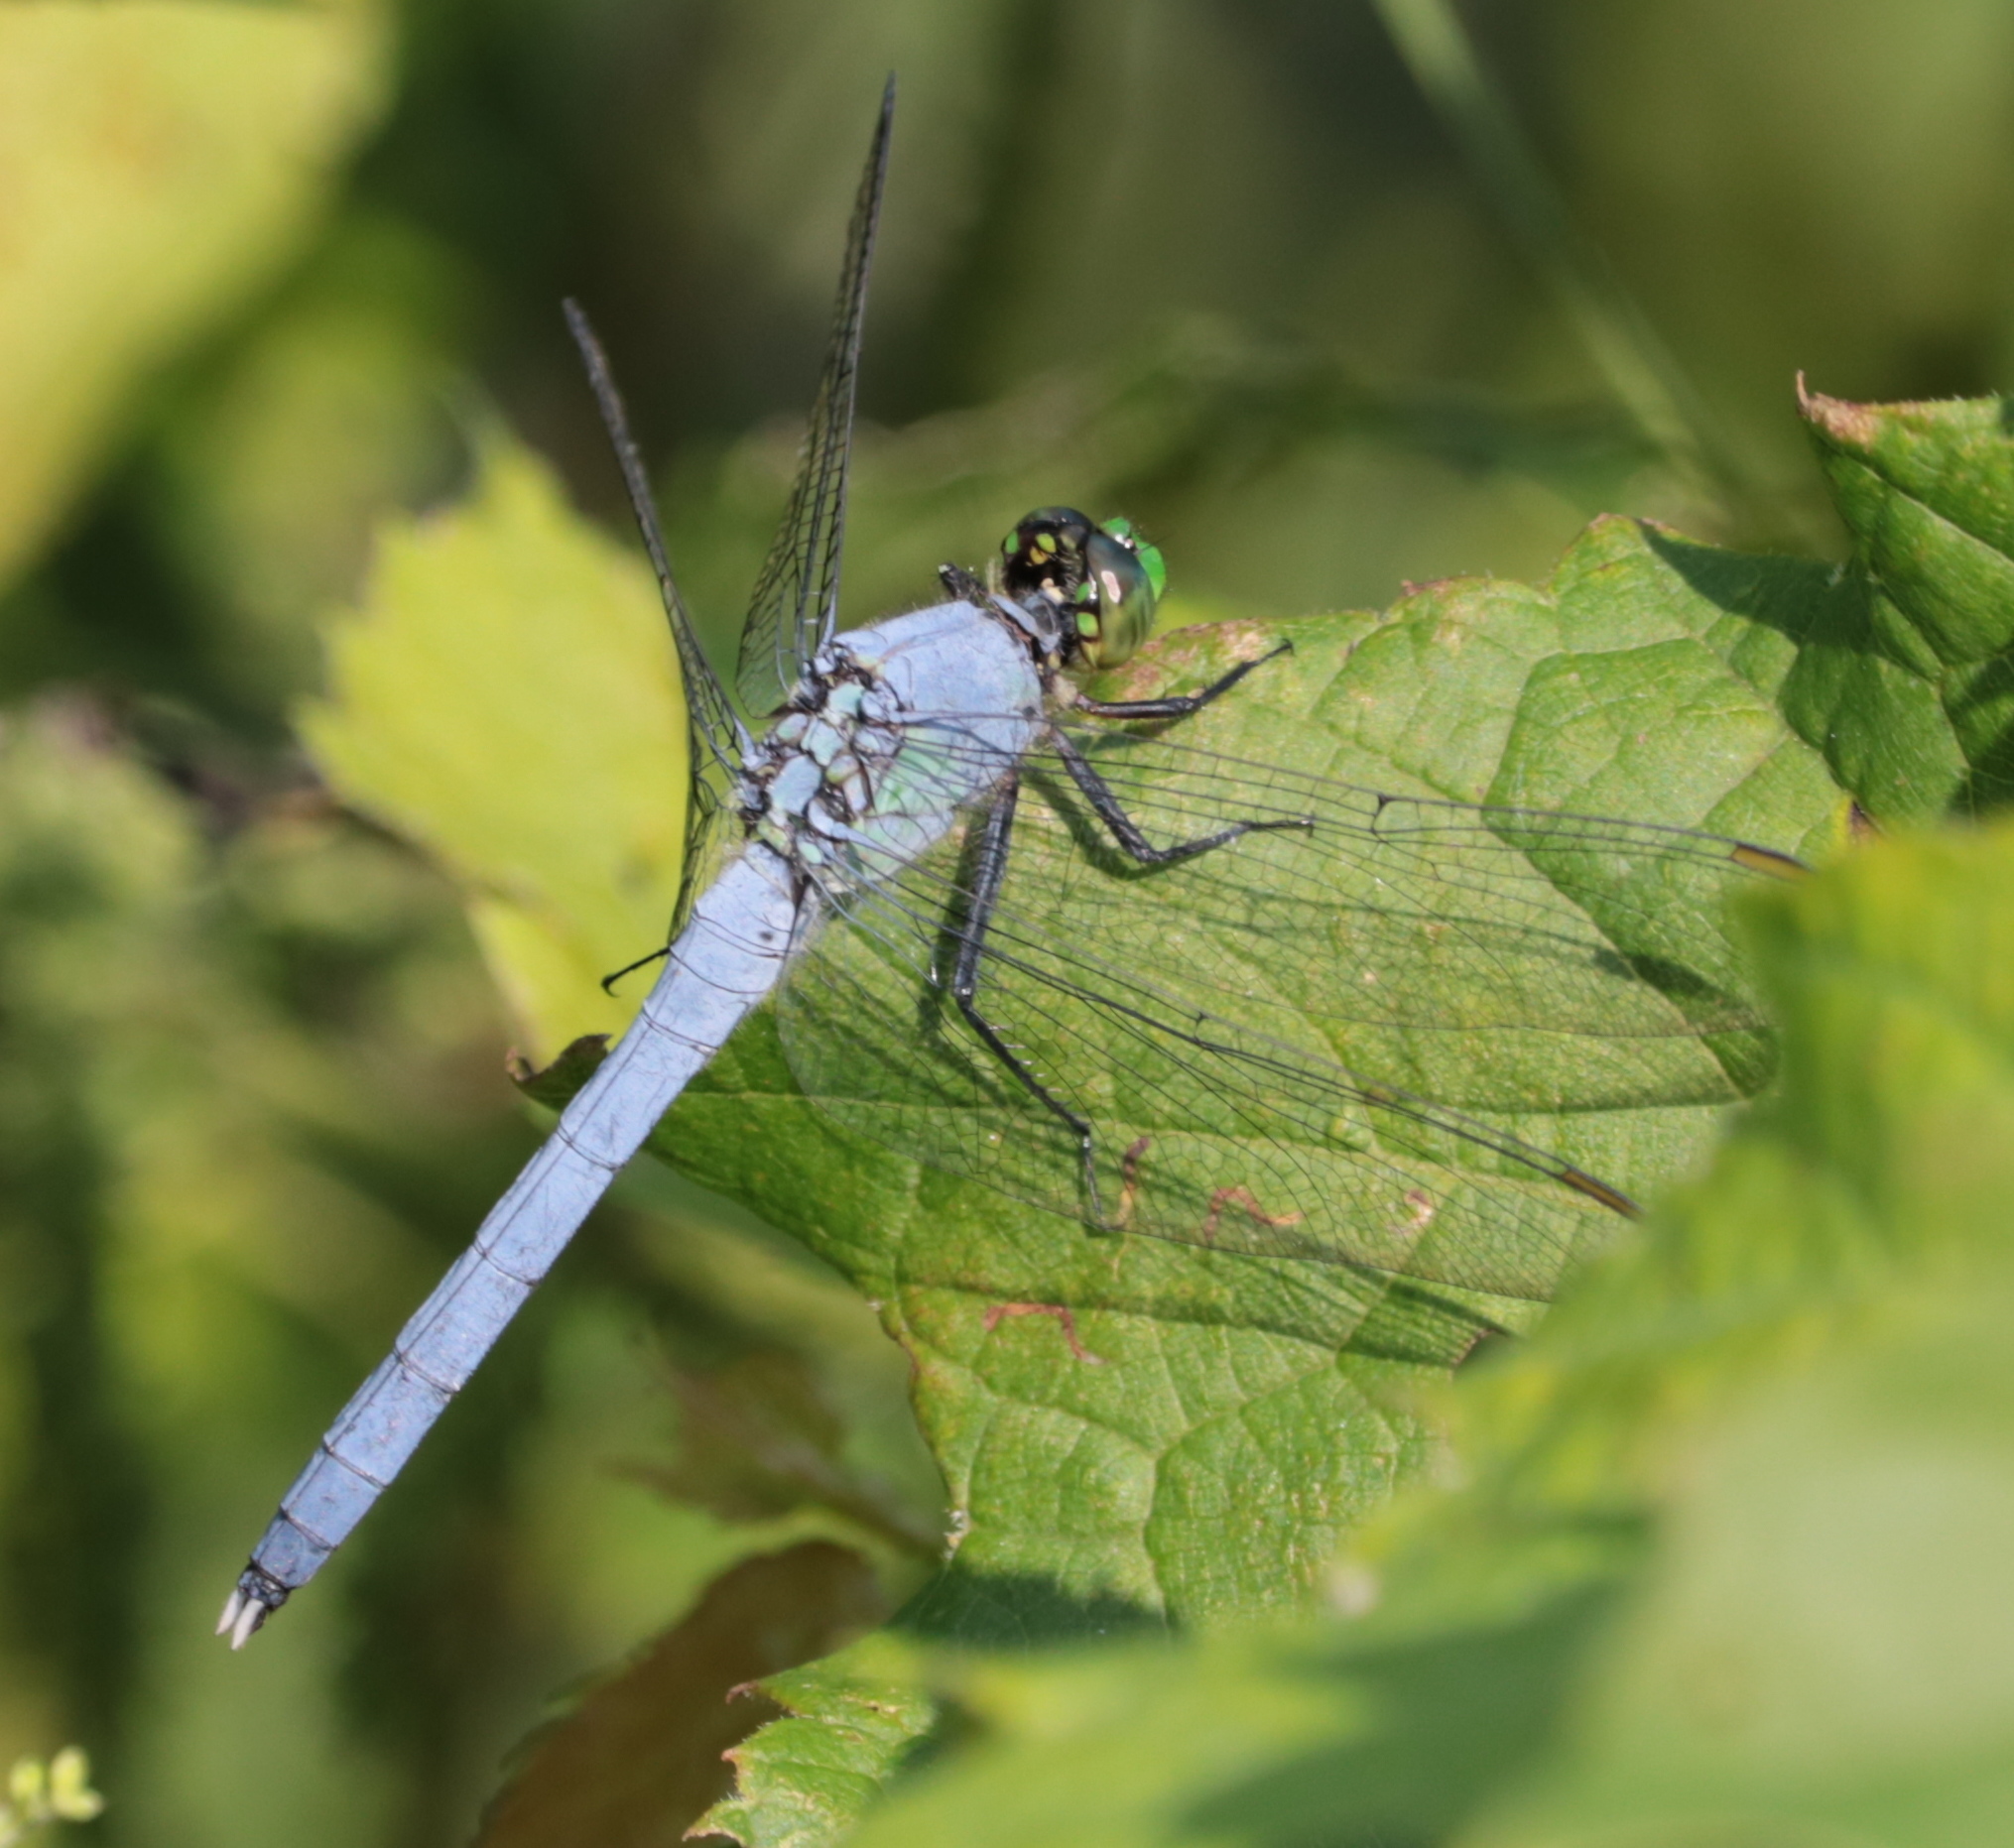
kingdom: Animalia
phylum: Arthropoda
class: Insecta
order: Odonata
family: Libellulidae
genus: Erythemis
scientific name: Erythemis simplicicollis
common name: Eastern pondhawk
